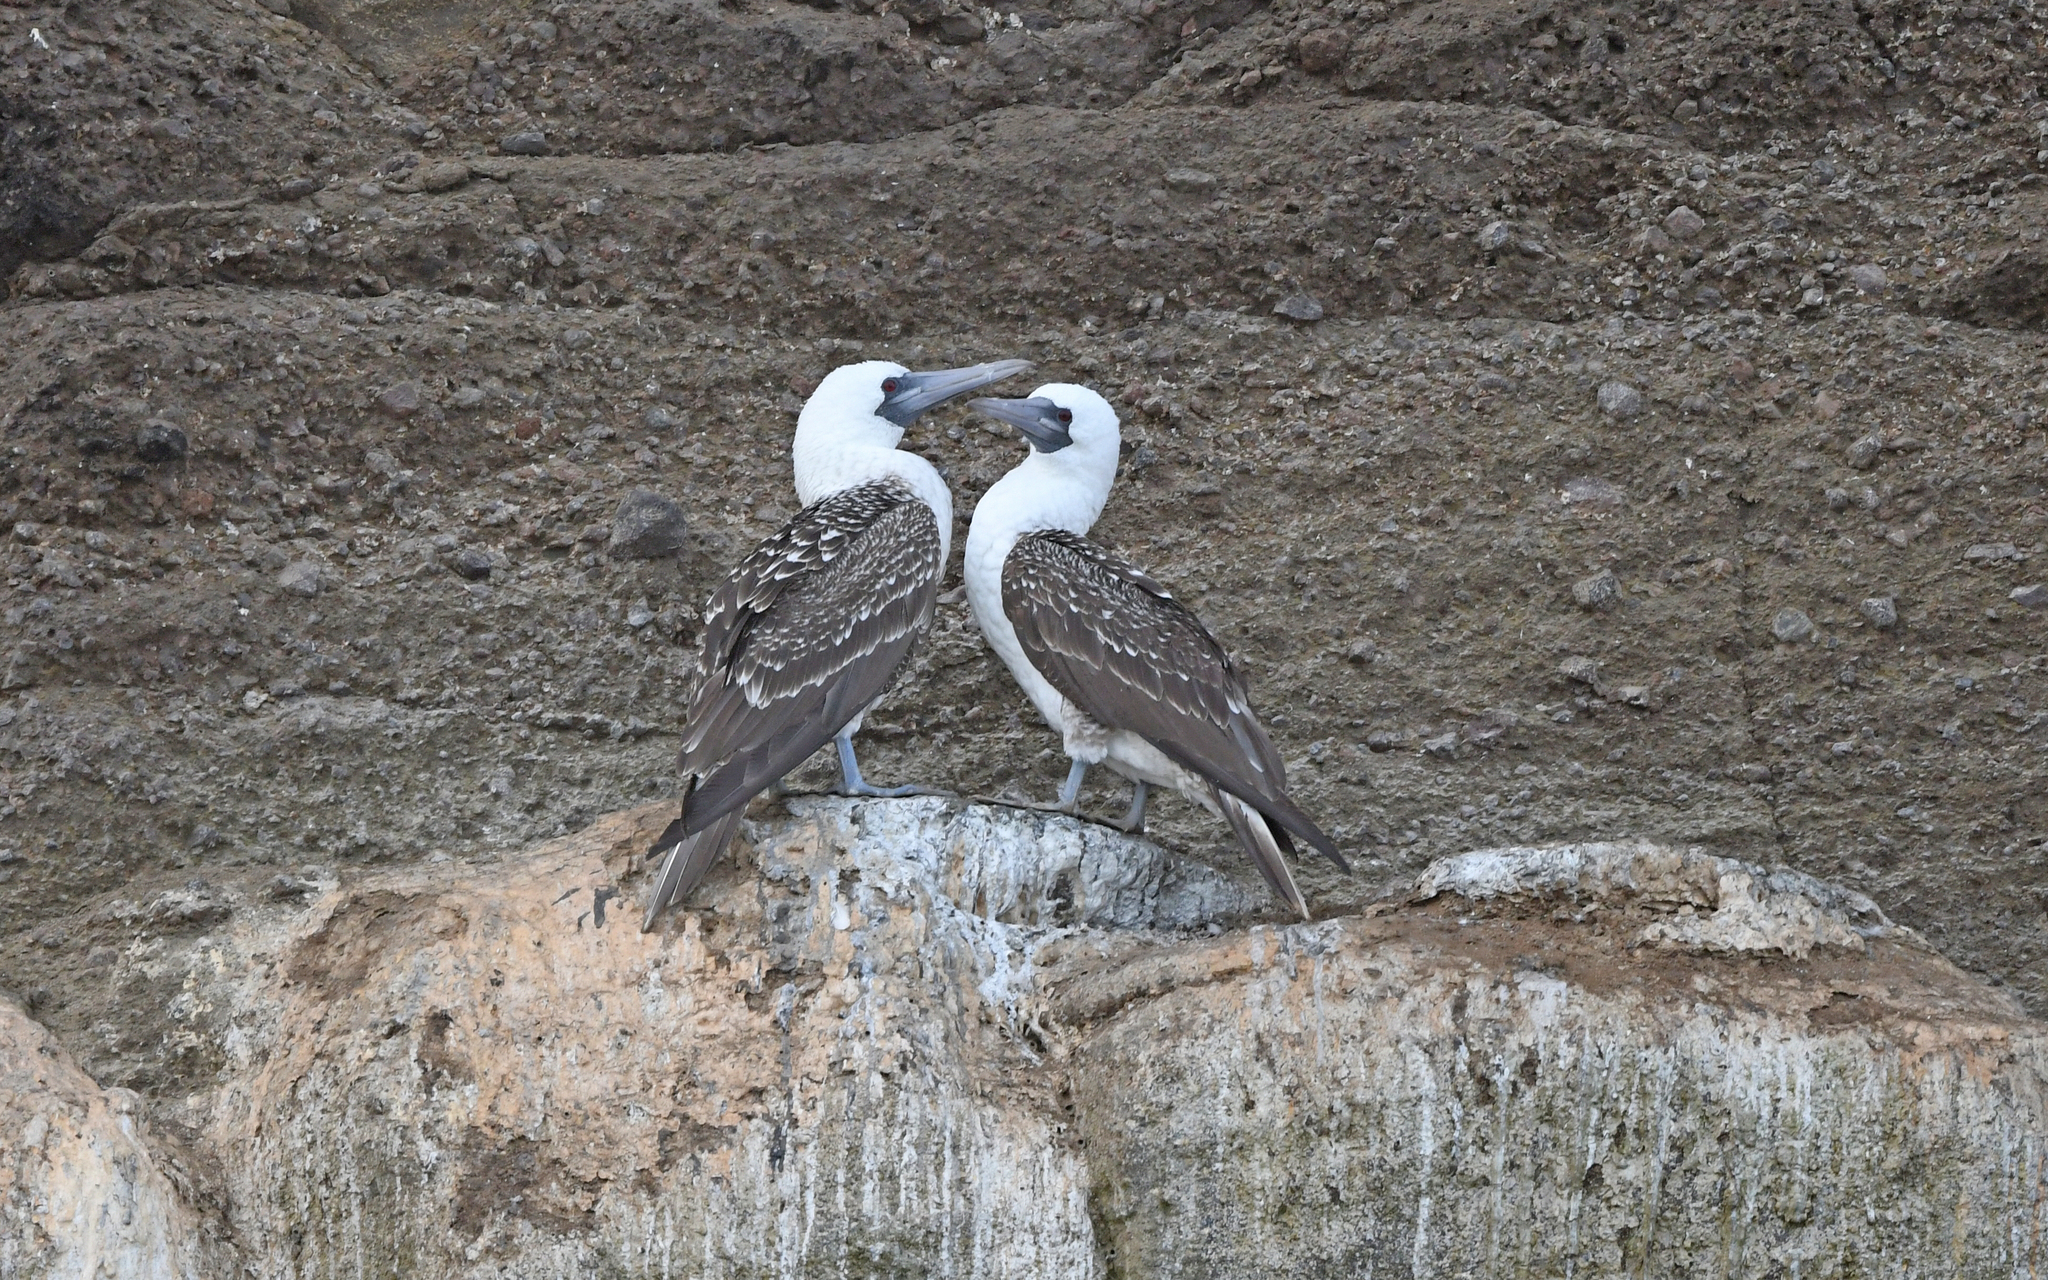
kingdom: Animalia
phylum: Chordata
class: Aves
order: Suliformes
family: Sulidae
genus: Sula
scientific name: Sula variegata
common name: Peruvian booby
